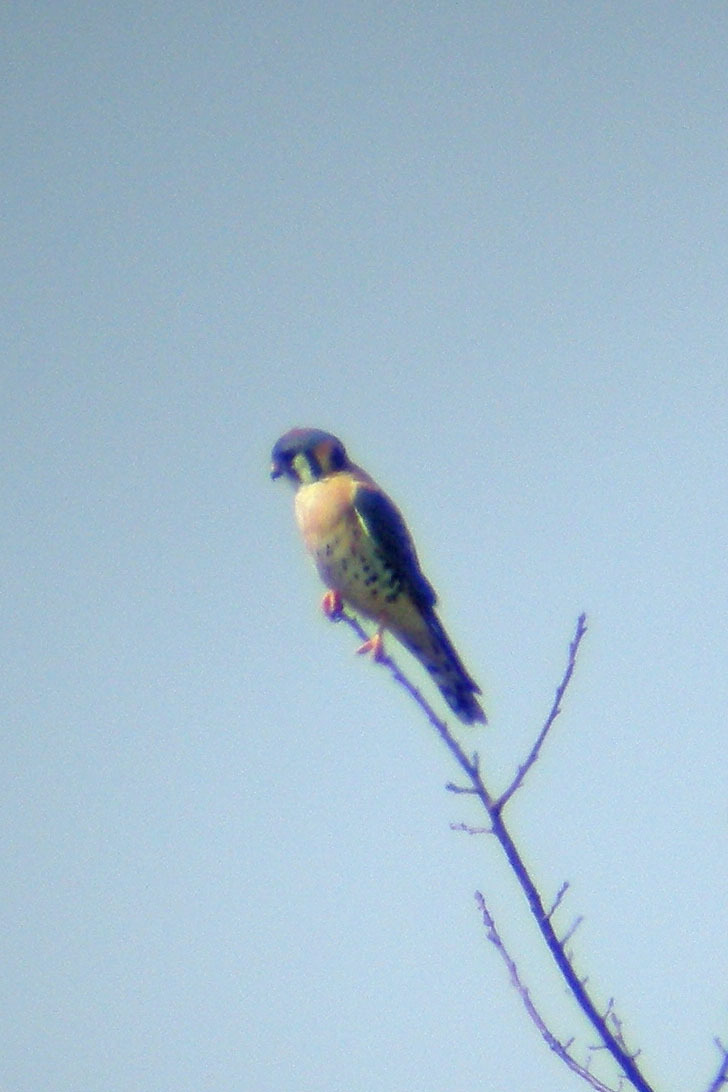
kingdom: Animalia
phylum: Chordata
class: Aves
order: Falconiformes
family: Falconidae
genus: Falco
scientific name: Falco sparverius
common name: American kestrel
